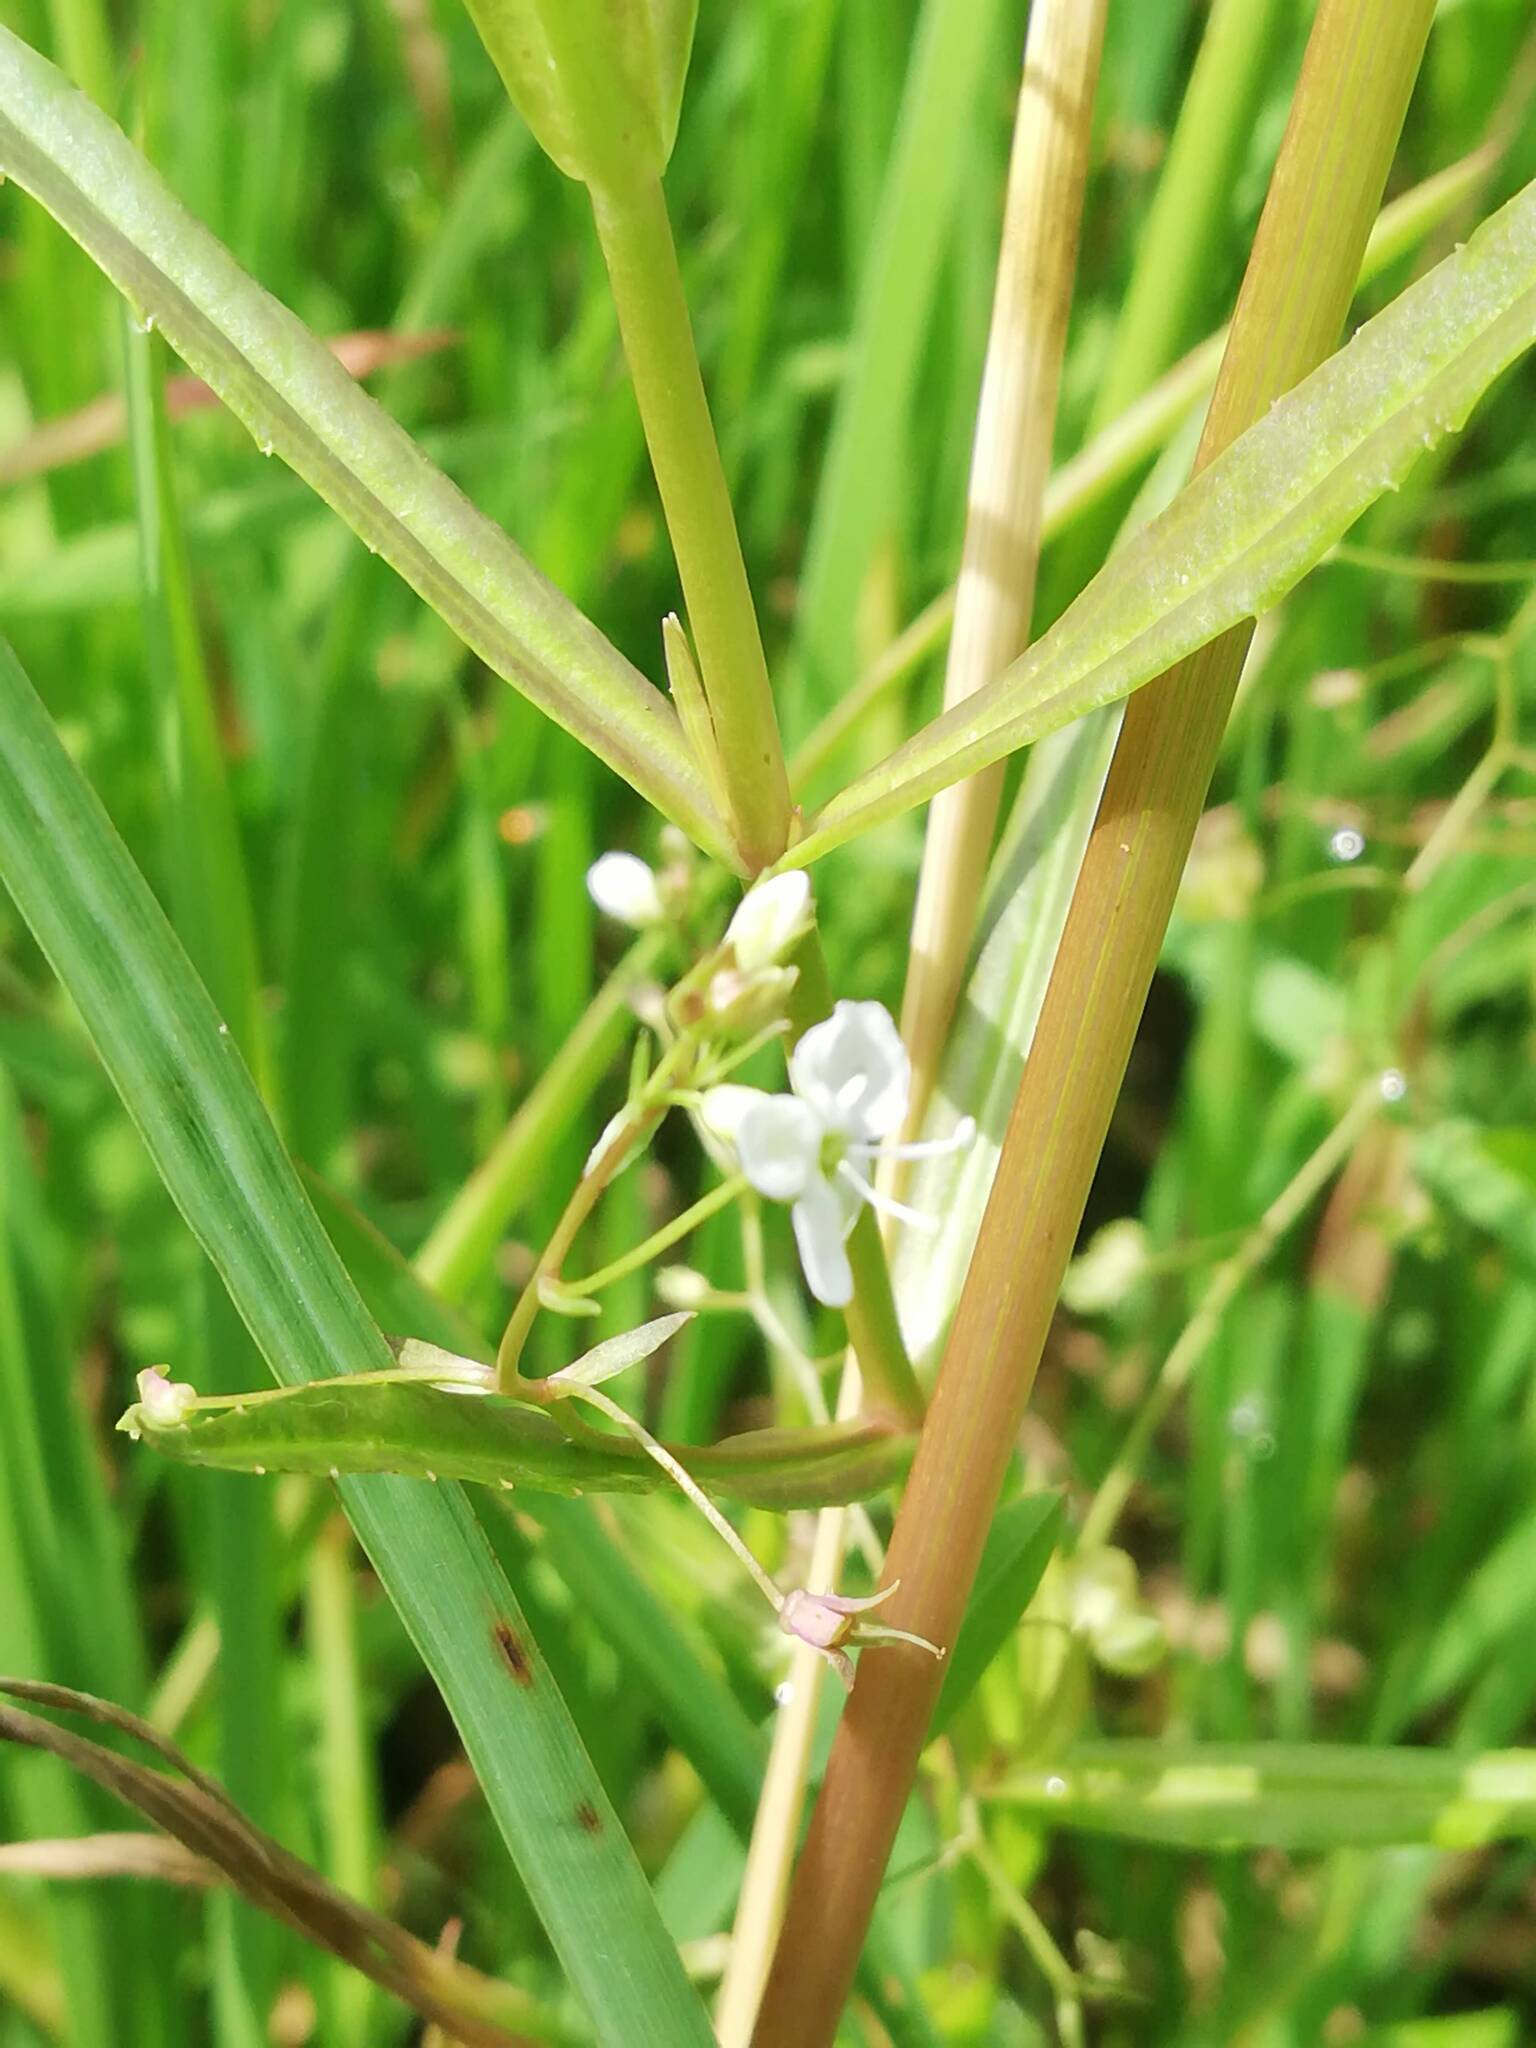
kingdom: Plantae
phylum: Tracheophyta
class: Magnoliopsida
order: Lamiales
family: Plantaginaceae
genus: Veronica
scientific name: Veronica scutellata
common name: Marsh speedwell
